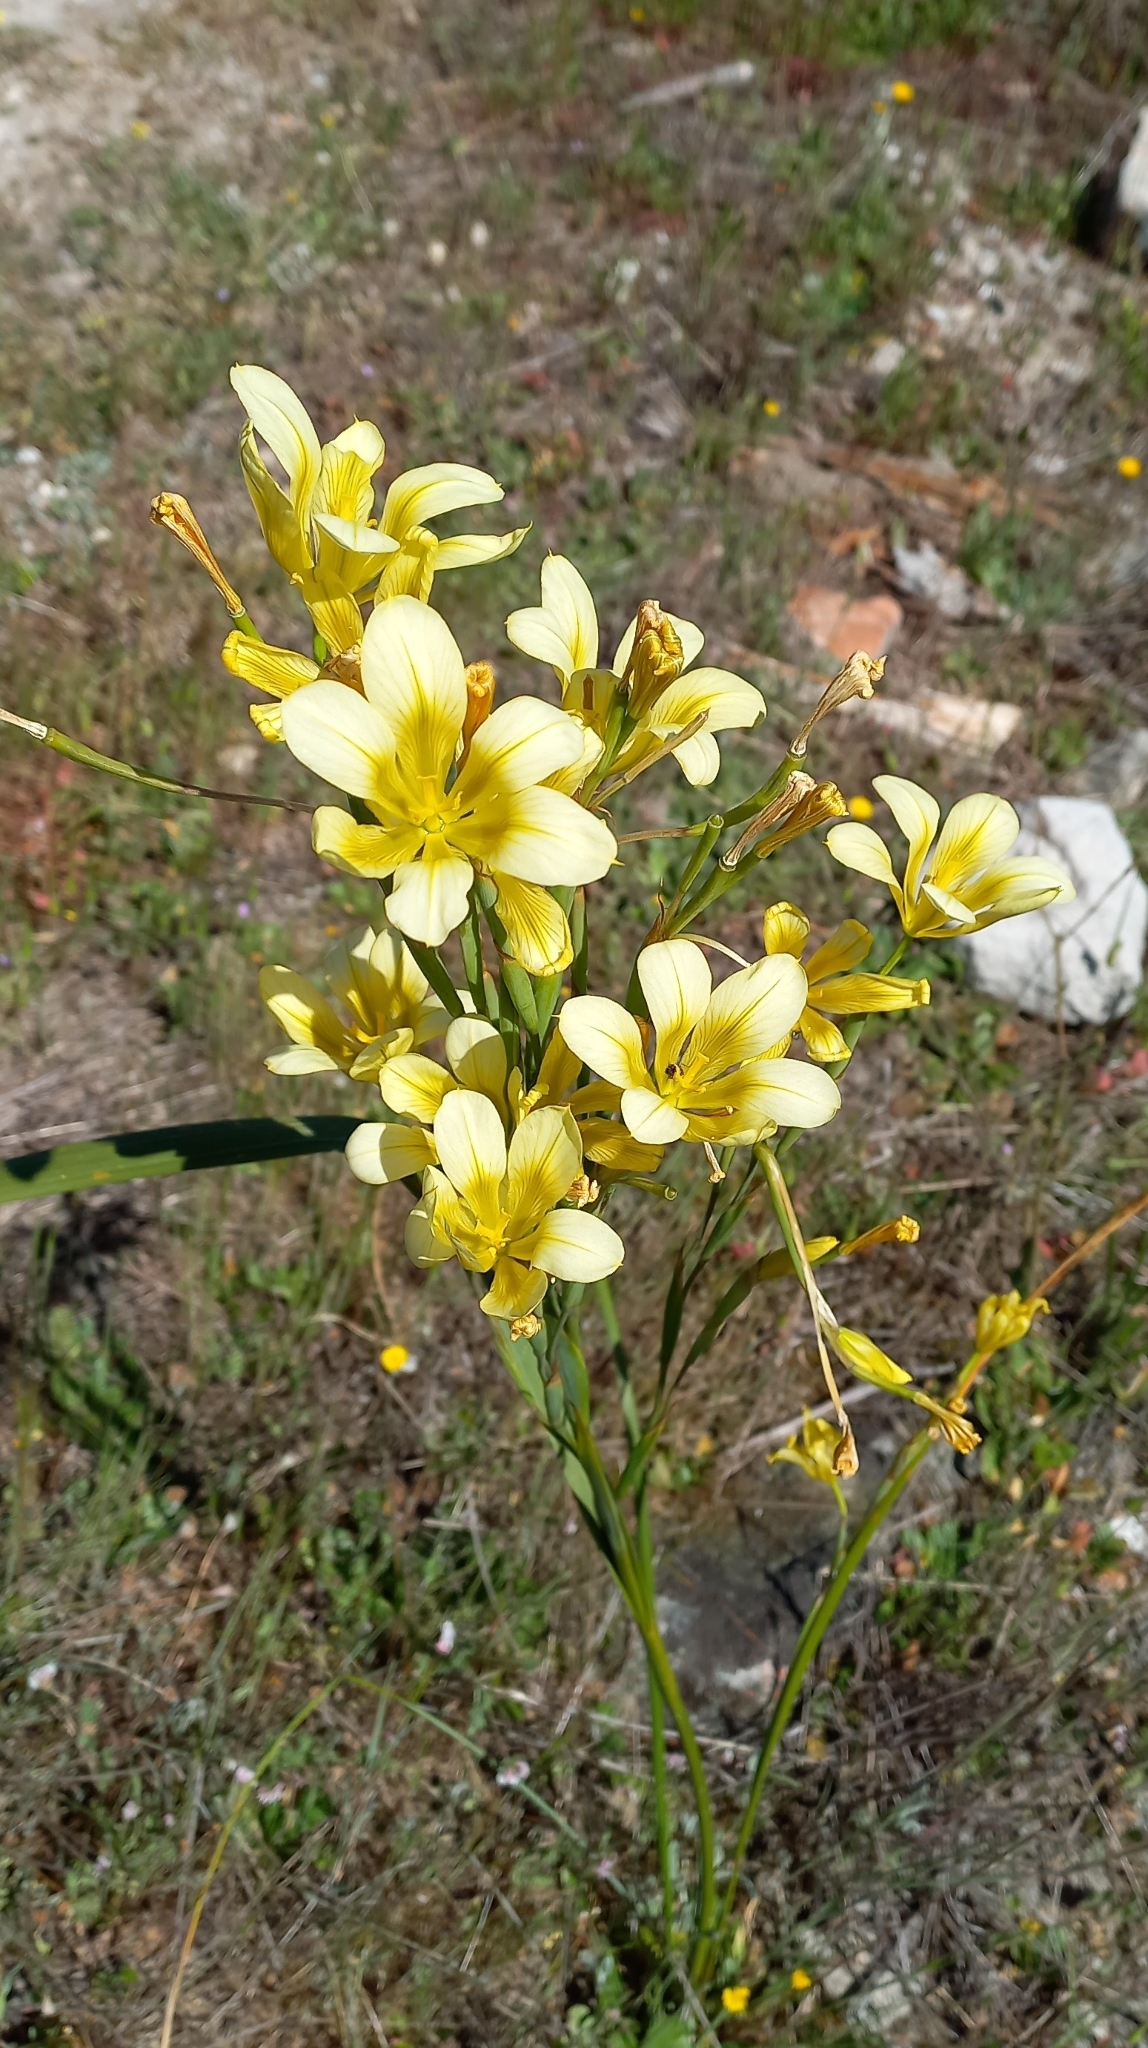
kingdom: Plantae
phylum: Tracheophyta
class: Liliopsida
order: Asparagales
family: Iridaceae
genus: Moraea
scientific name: Moraea ochroleuca
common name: Red tulp
